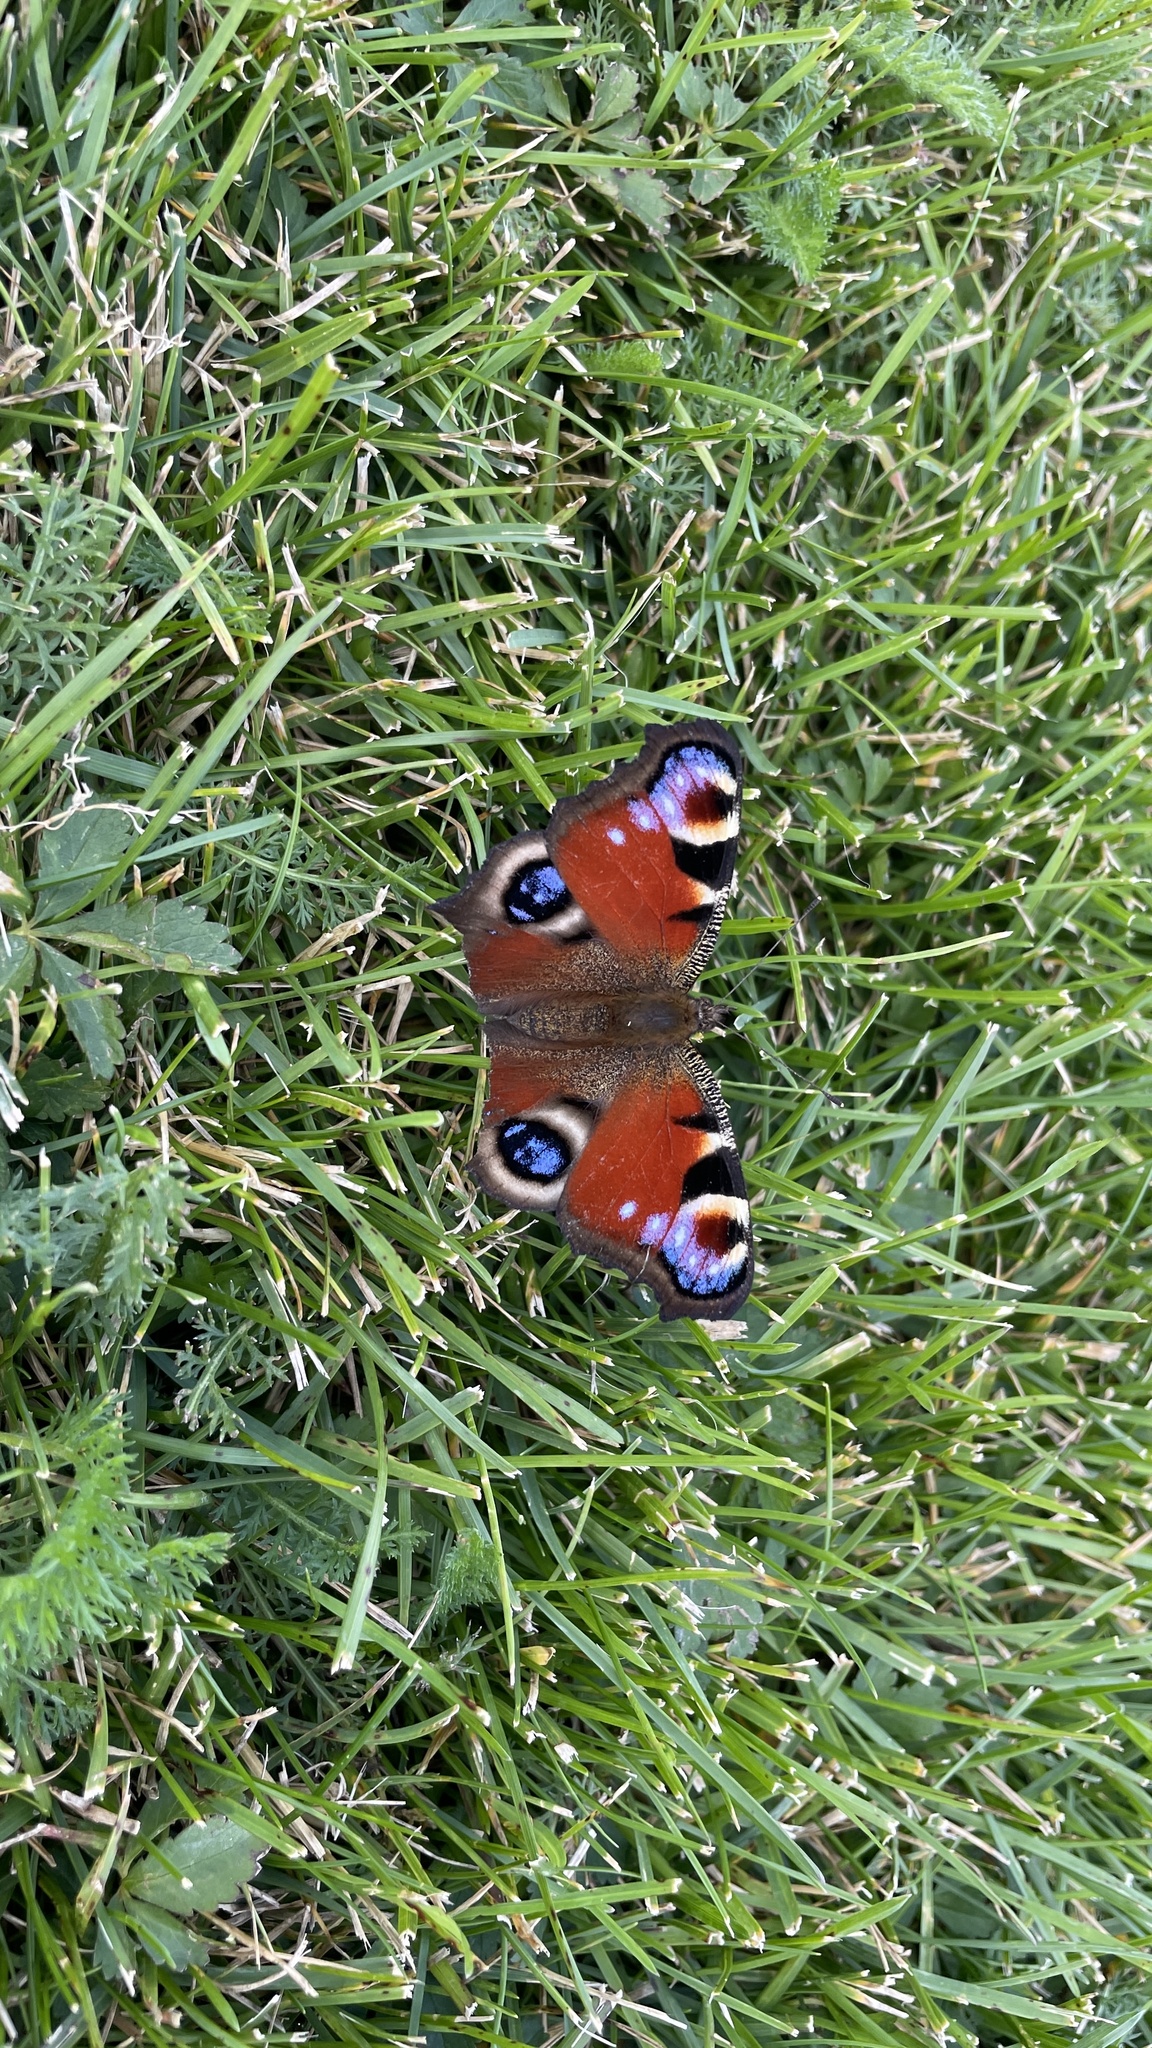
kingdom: Animalia
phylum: Arthropoda
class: Insecta
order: Lepidoptera
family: Nymphalidae
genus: Aglais
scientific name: Aglais io
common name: Peacock
